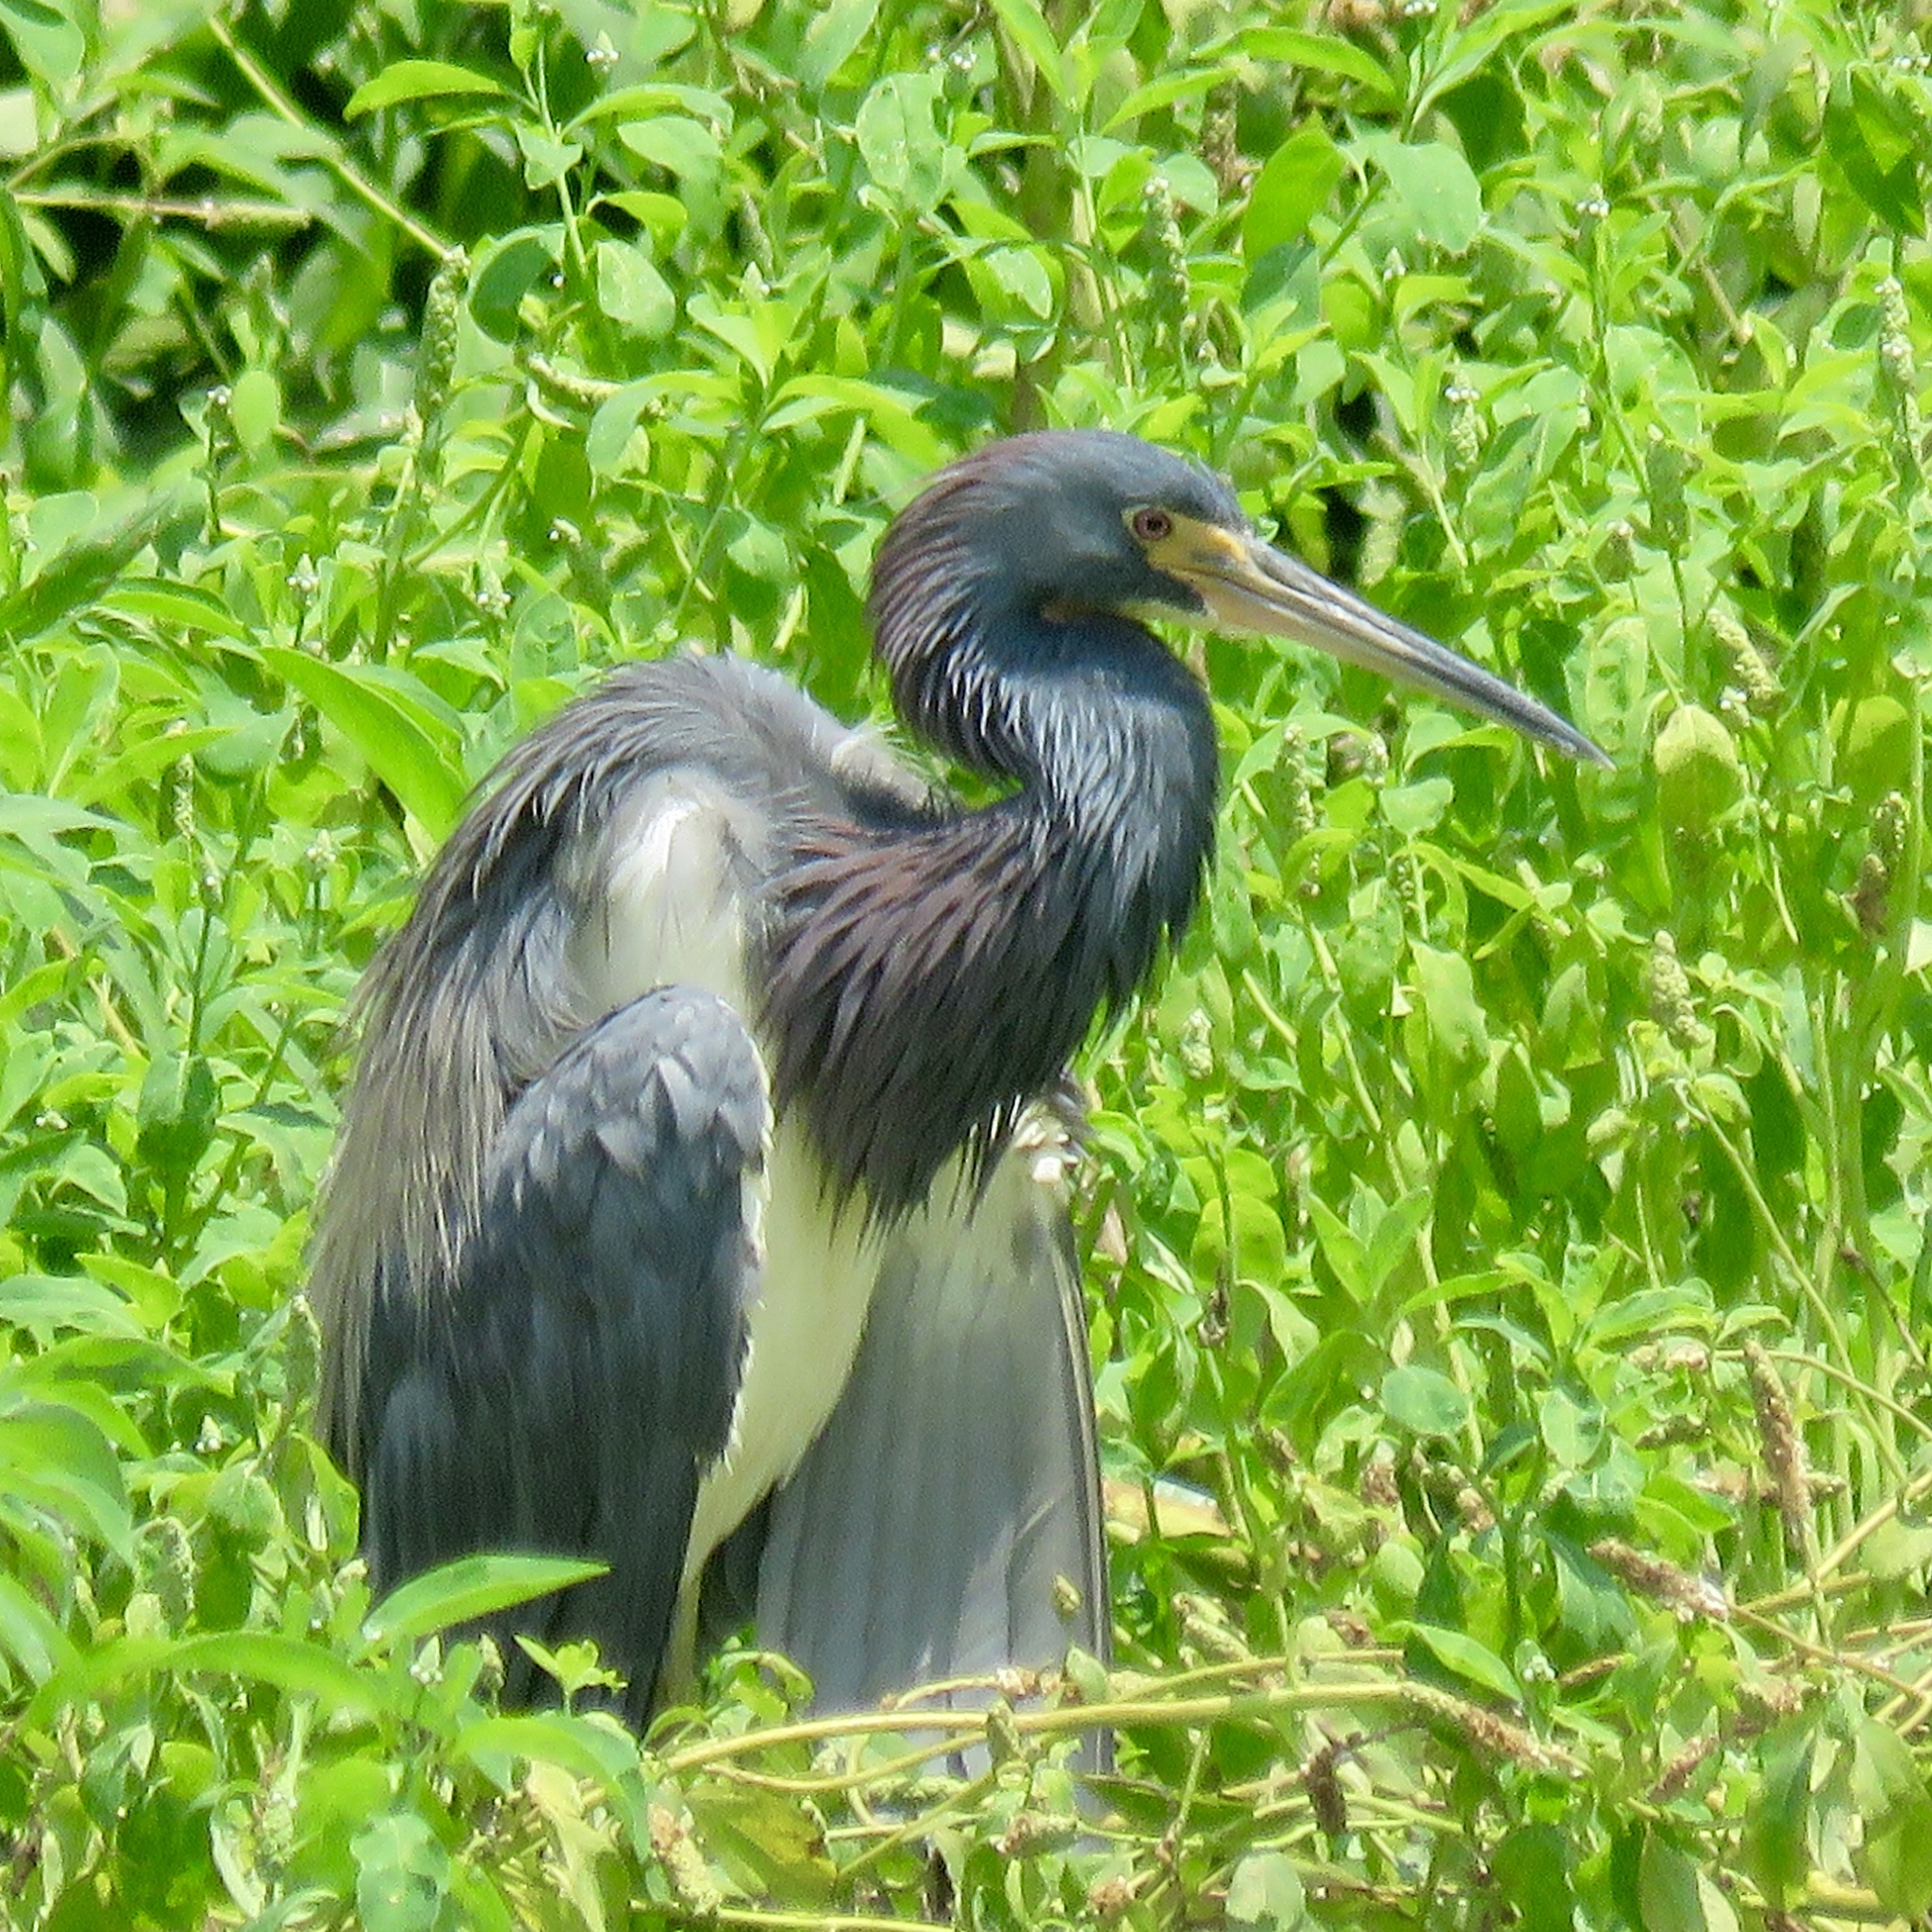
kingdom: Animalia
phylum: Chordata
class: Aves
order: Pelecaniformes
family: Ardeidae
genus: Egretta
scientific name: Egretta tricolor
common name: Tricolored heron
